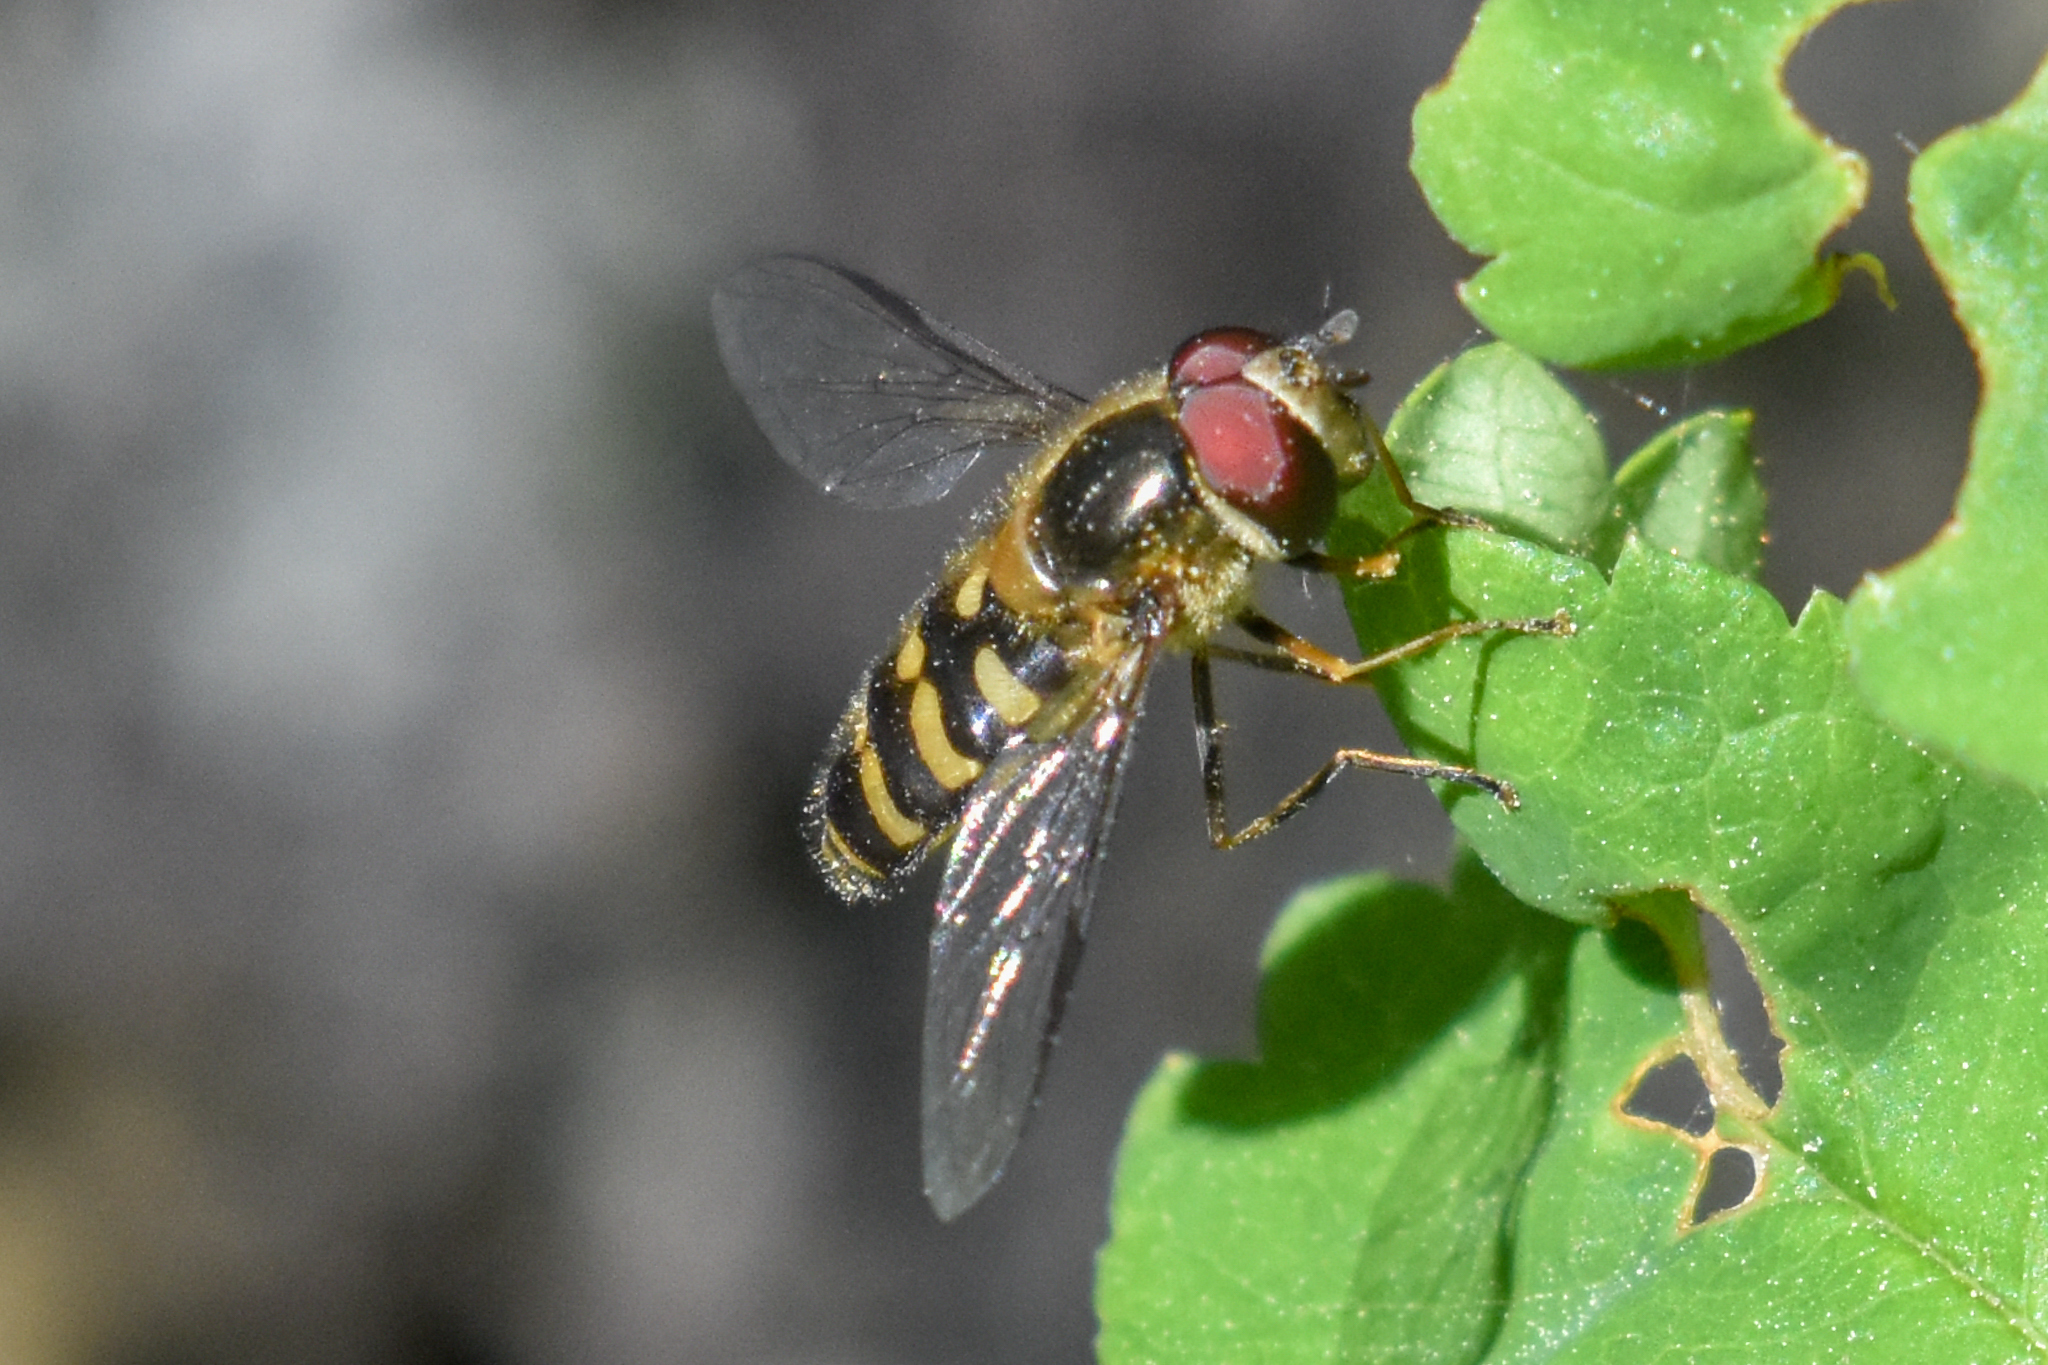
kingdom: Animalia
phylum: Arthropoda
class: Insecta
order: Diptera
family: Syrphidae
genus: Lapposyrphus
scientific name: Lapposyrphus aberrantis
